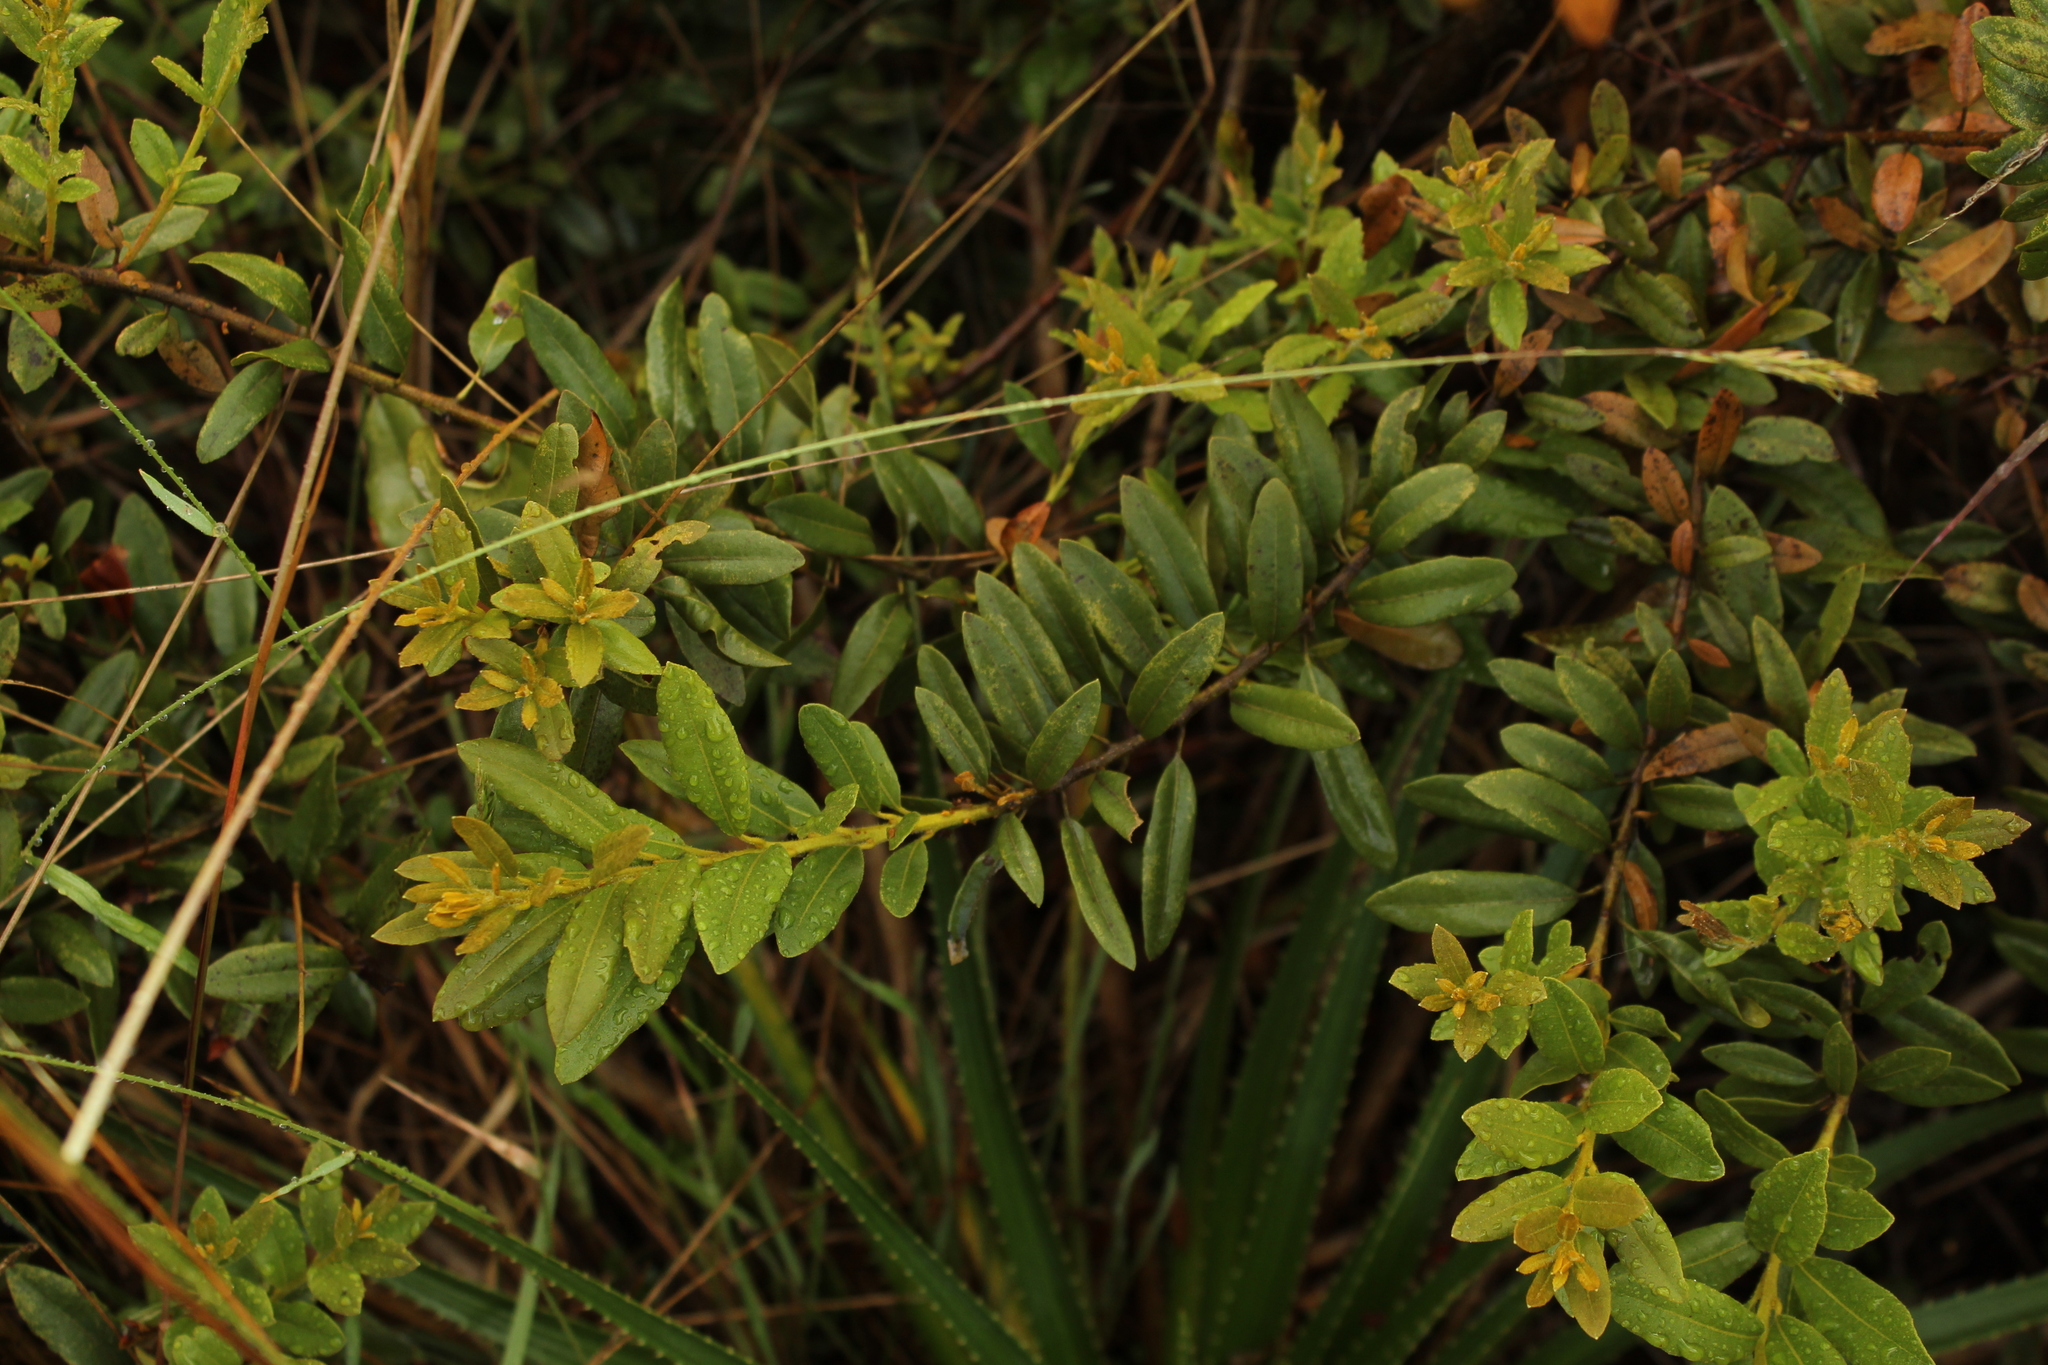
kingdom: Plantae
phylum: Tracheophyta
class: Magnoliopsida
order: Fagales
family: Myricaceae
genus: Morella
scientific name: Morella parvifolia
